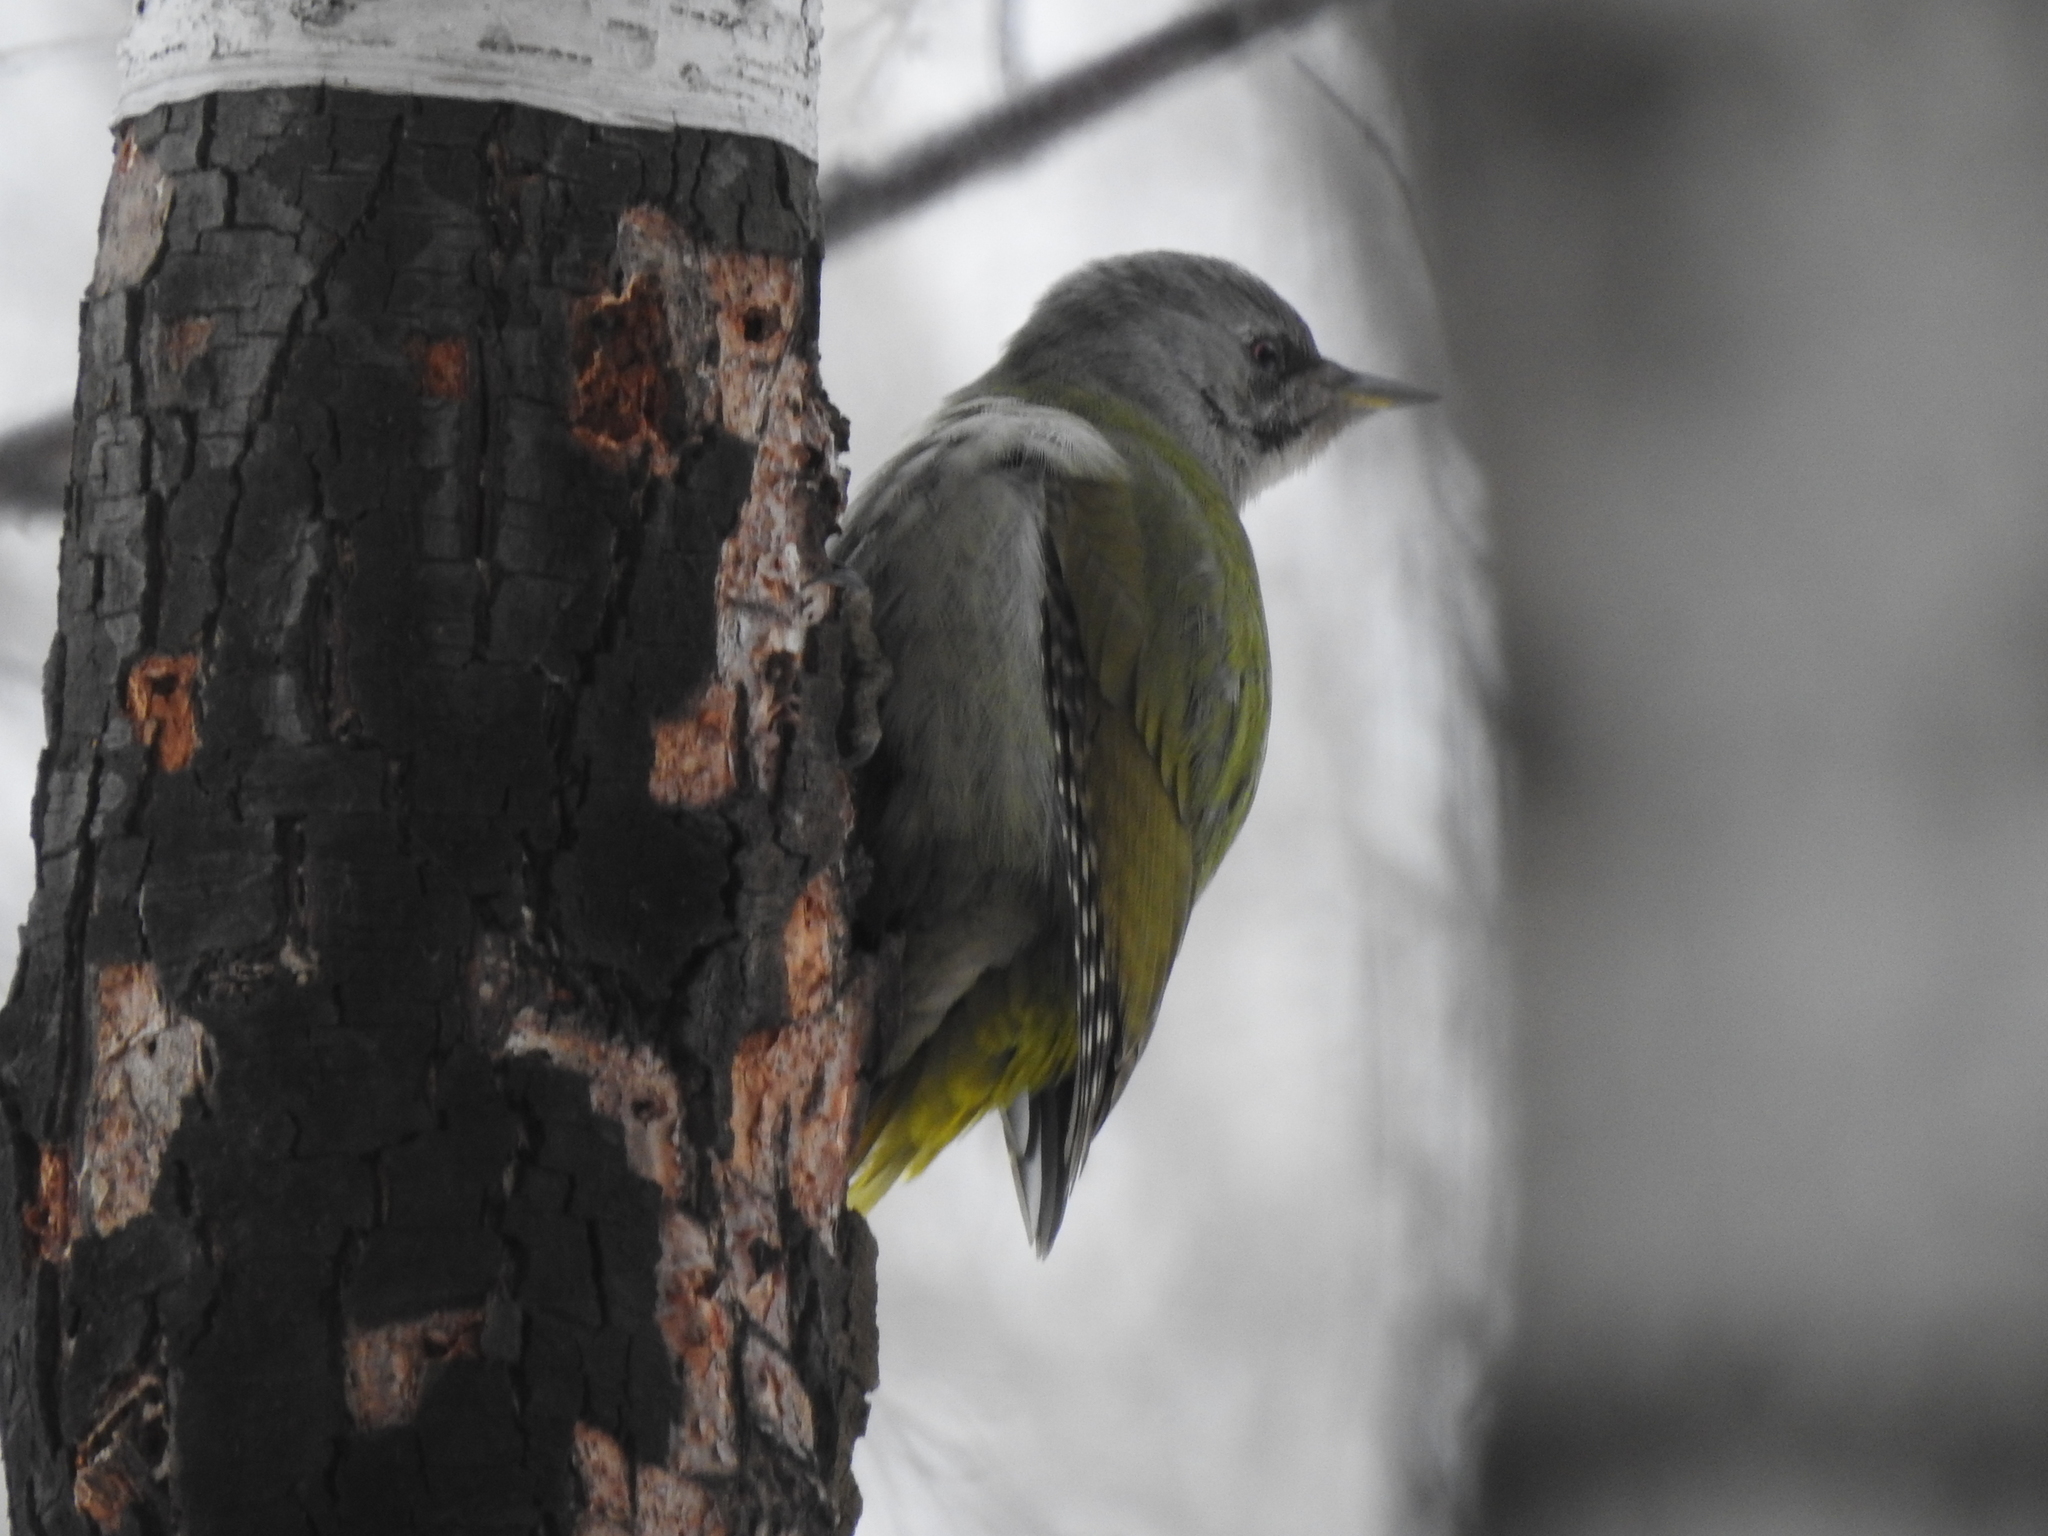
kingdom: Animalia
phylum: Chordata
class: Aves
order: Piciformes
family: Picidae
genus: Picus
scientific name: Picus canus
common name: Grey-headed woodpecker
